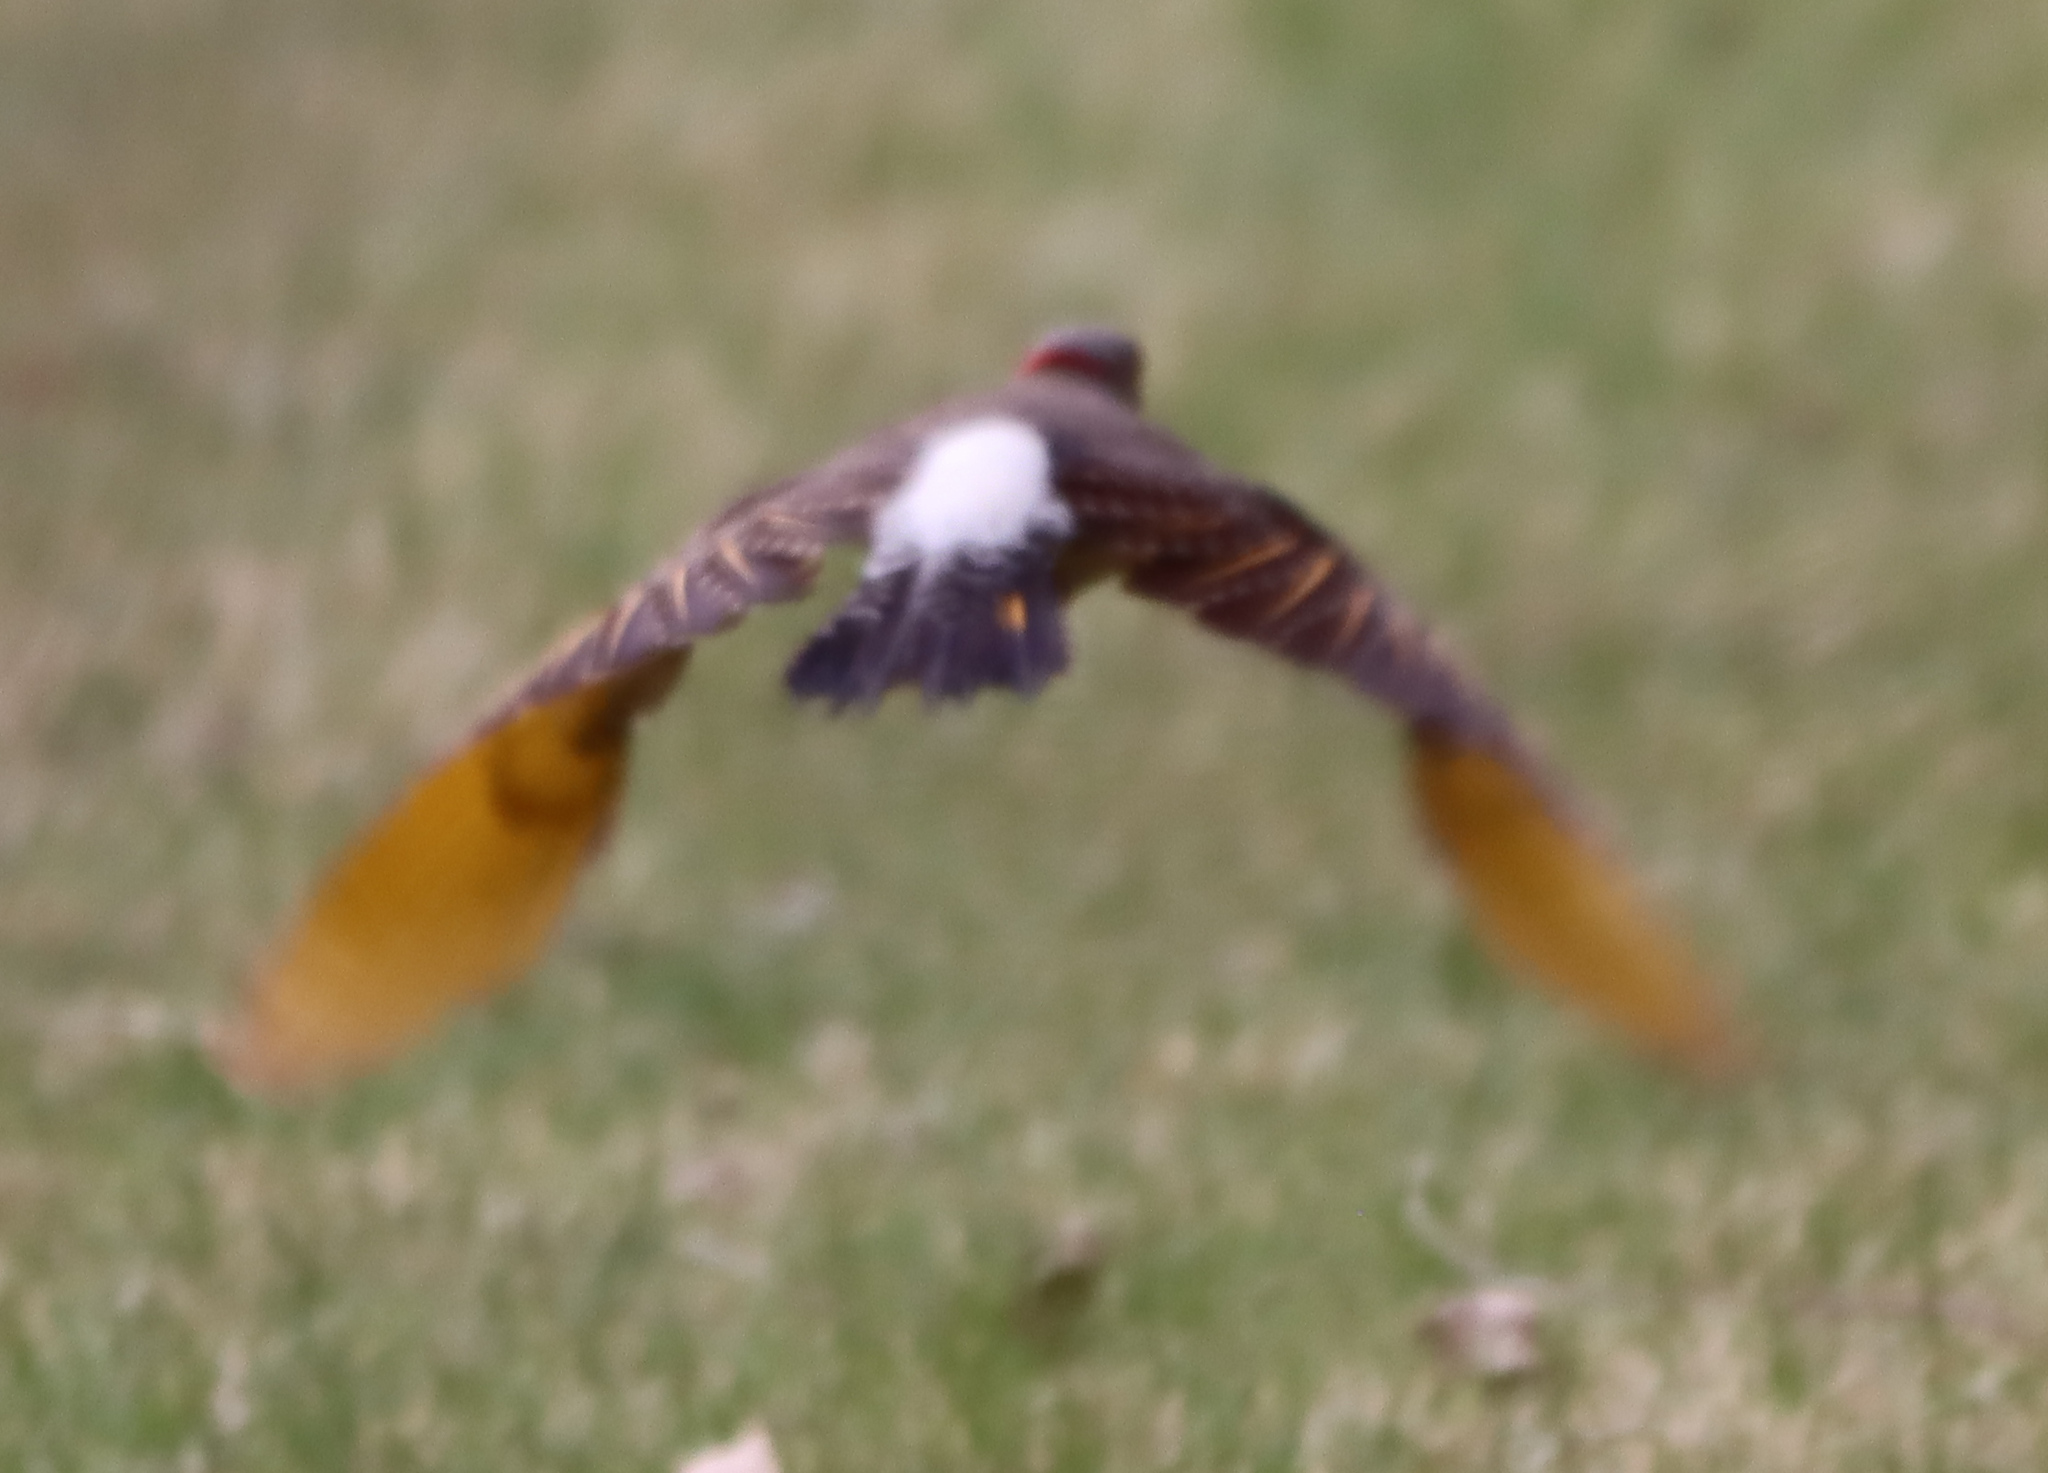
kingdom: Animalia
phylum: Chordata
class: Aves
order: Piciformes
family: Picidae
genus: Colaptes
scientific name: Colaptes auratus
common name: Northern flicker
